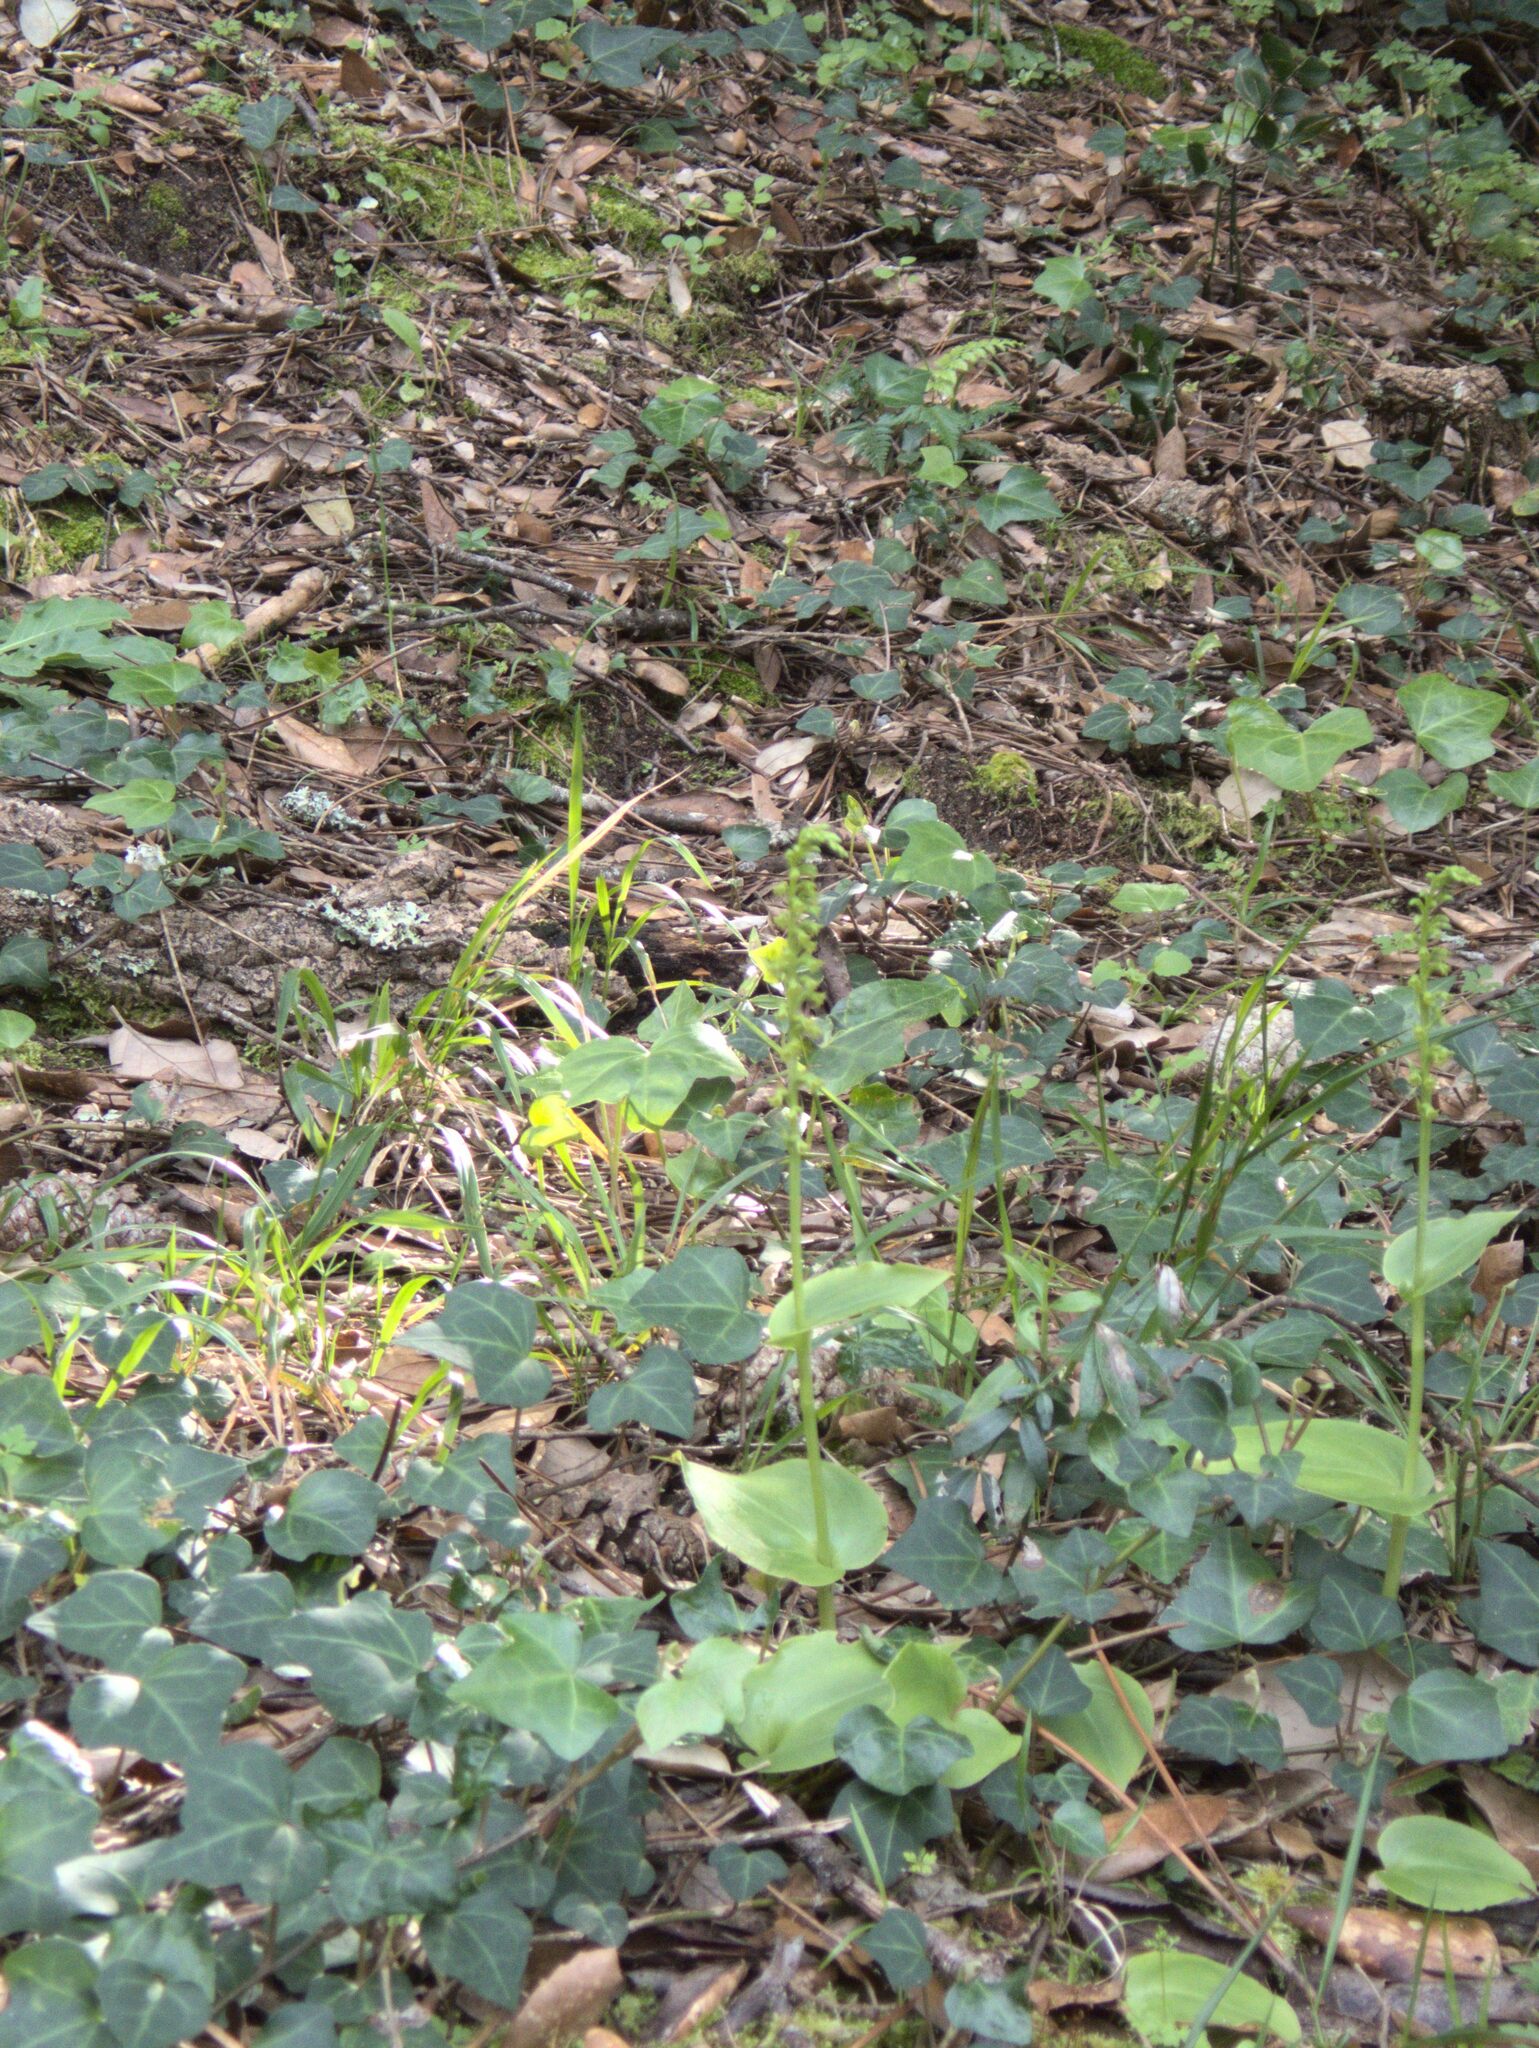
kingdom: Plantae
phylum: Tracheophyta
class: Liliopsida
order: Asparagales
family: Orchidaceae
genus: Gennaria
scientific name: Gennaria diphylla
